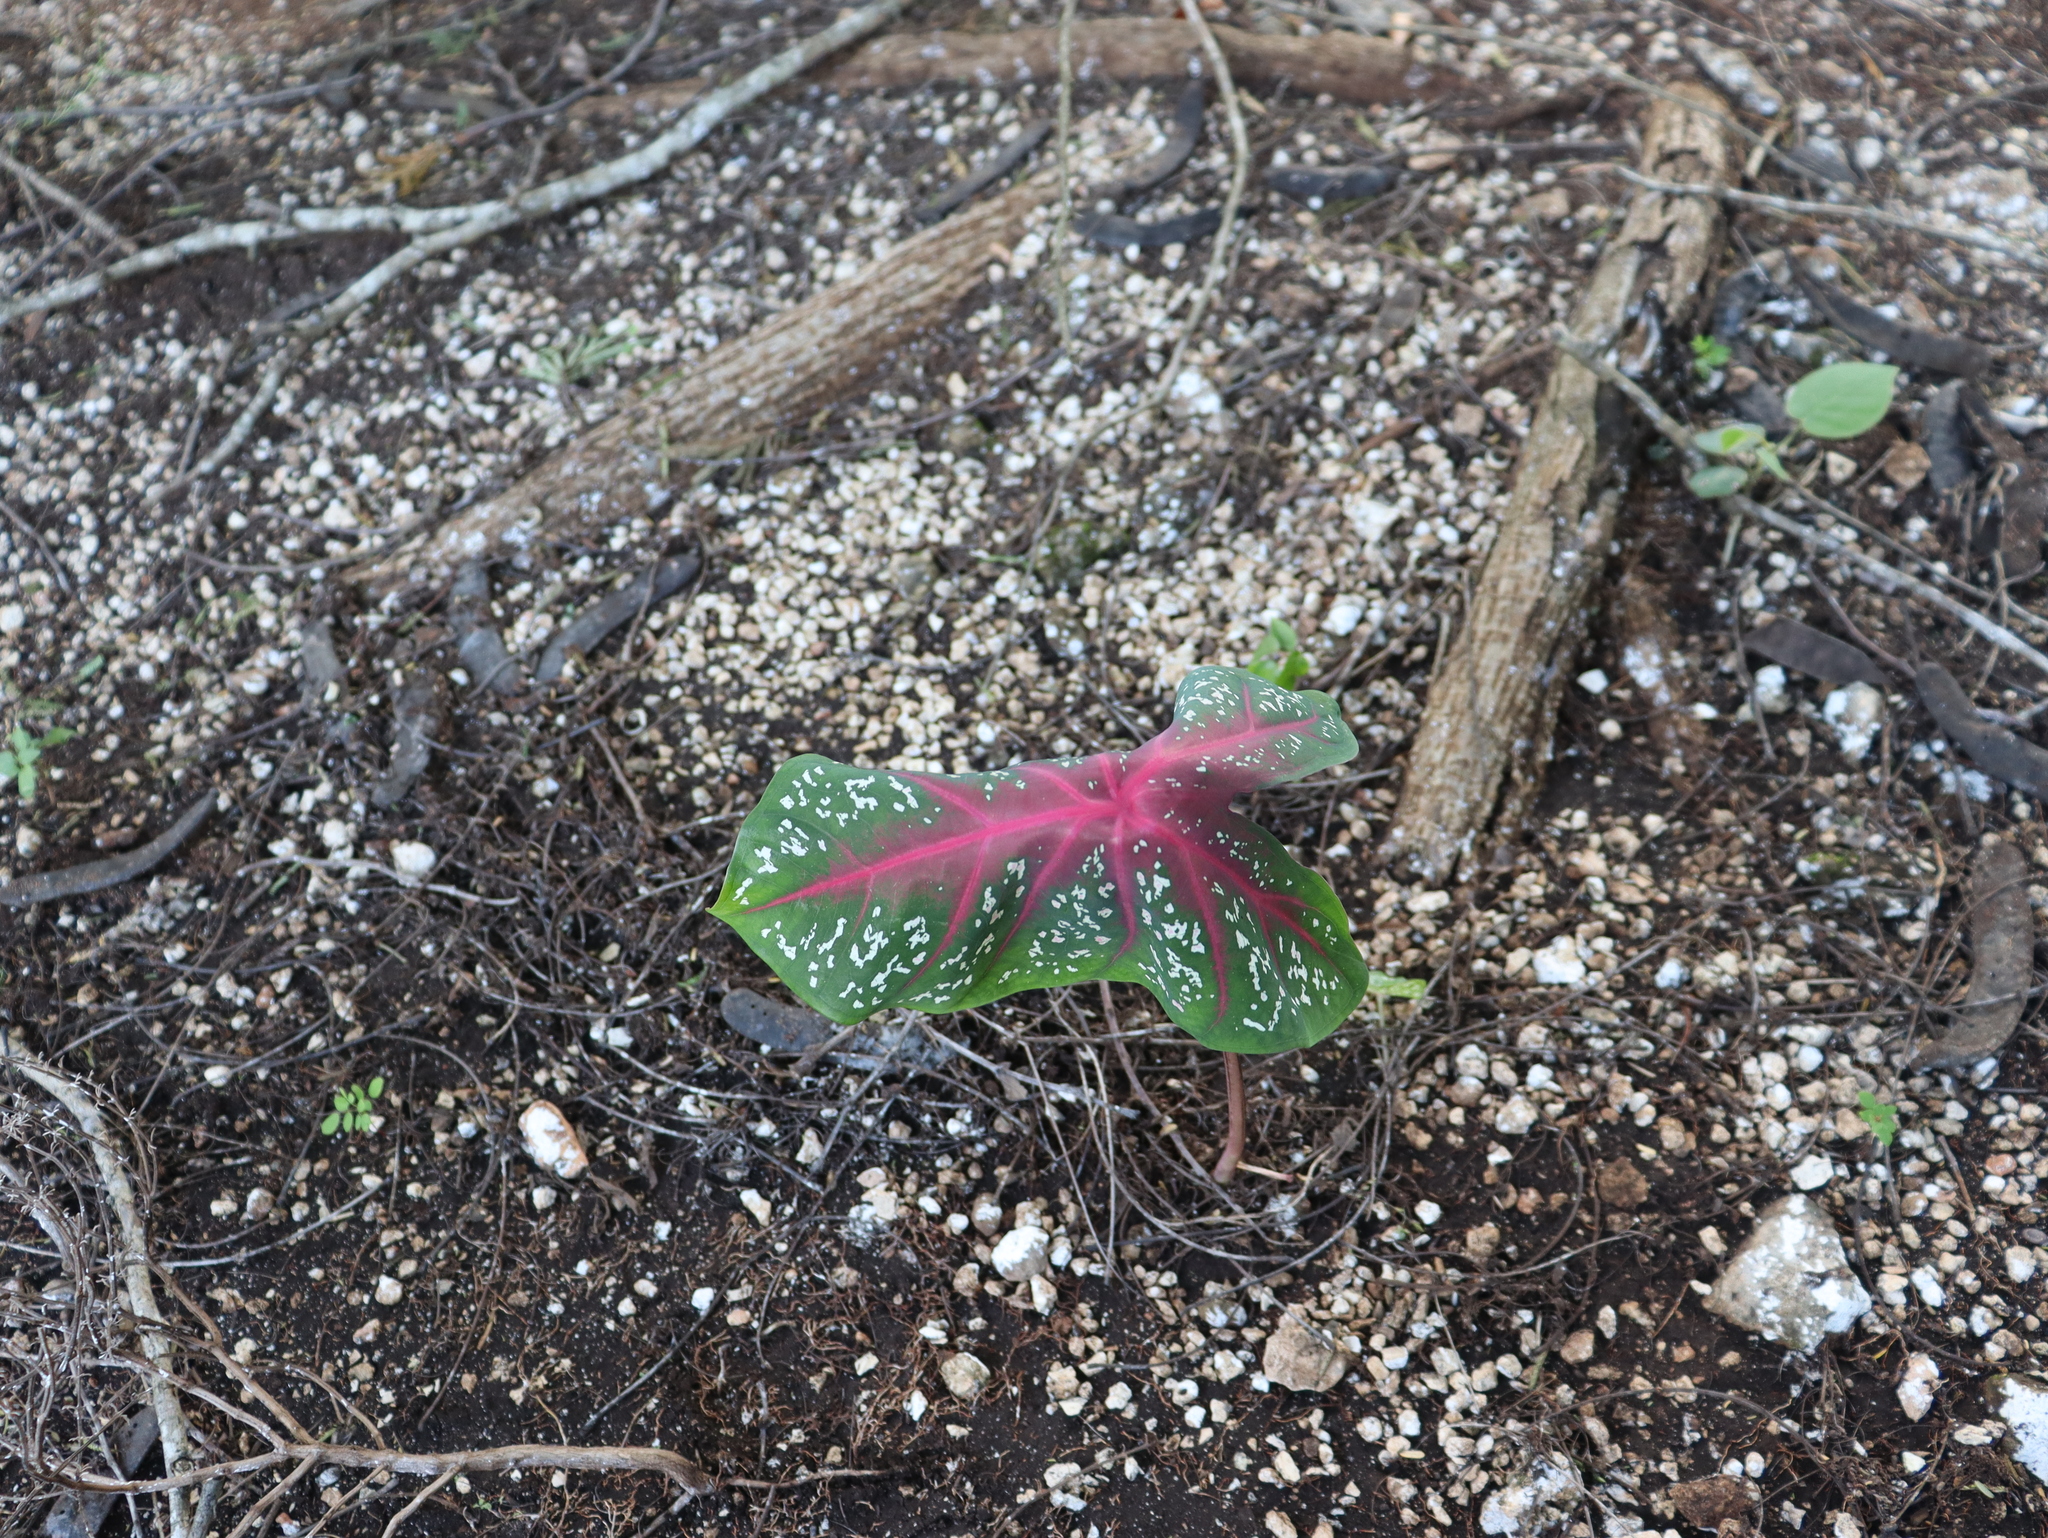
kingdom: Plantae
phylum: Tracheophyta
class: Liliopsida
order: Alismatales
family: Araceae
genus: Caladium
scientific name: Caladium bicolor
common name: Artist's pallet
